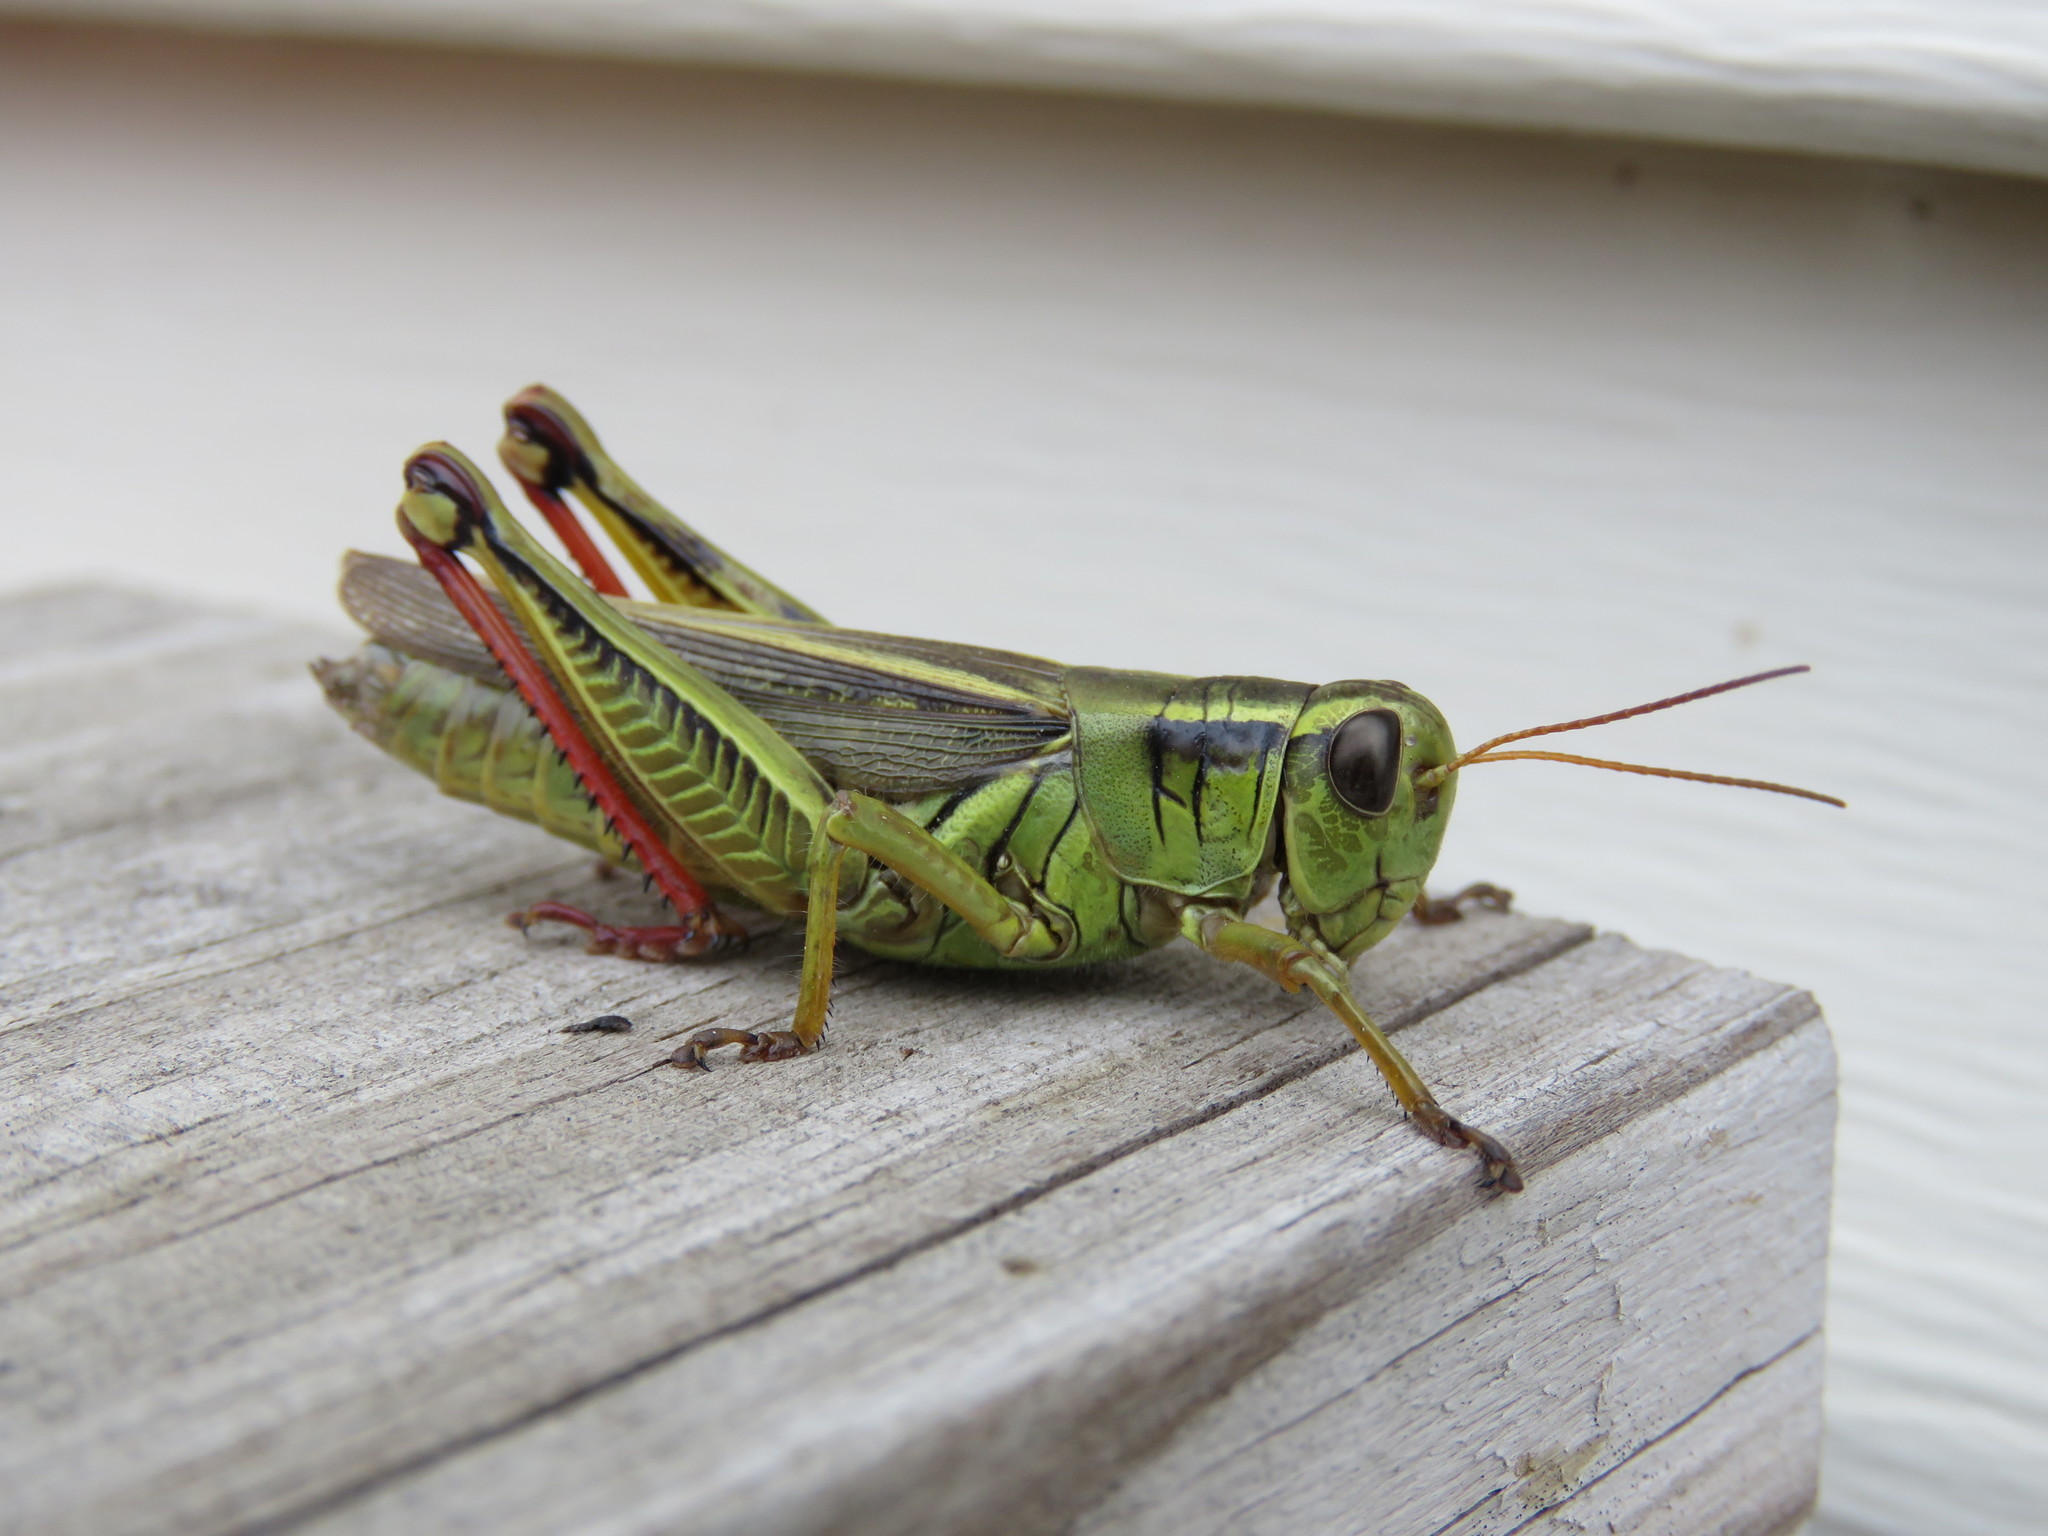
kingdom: Animalia
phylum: Arthropoda
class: Insecta
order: Orthoptera
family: Acrididae
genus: Melanoplus
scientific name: Melanoplus bivittatus
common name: Two-striped grasshopper
